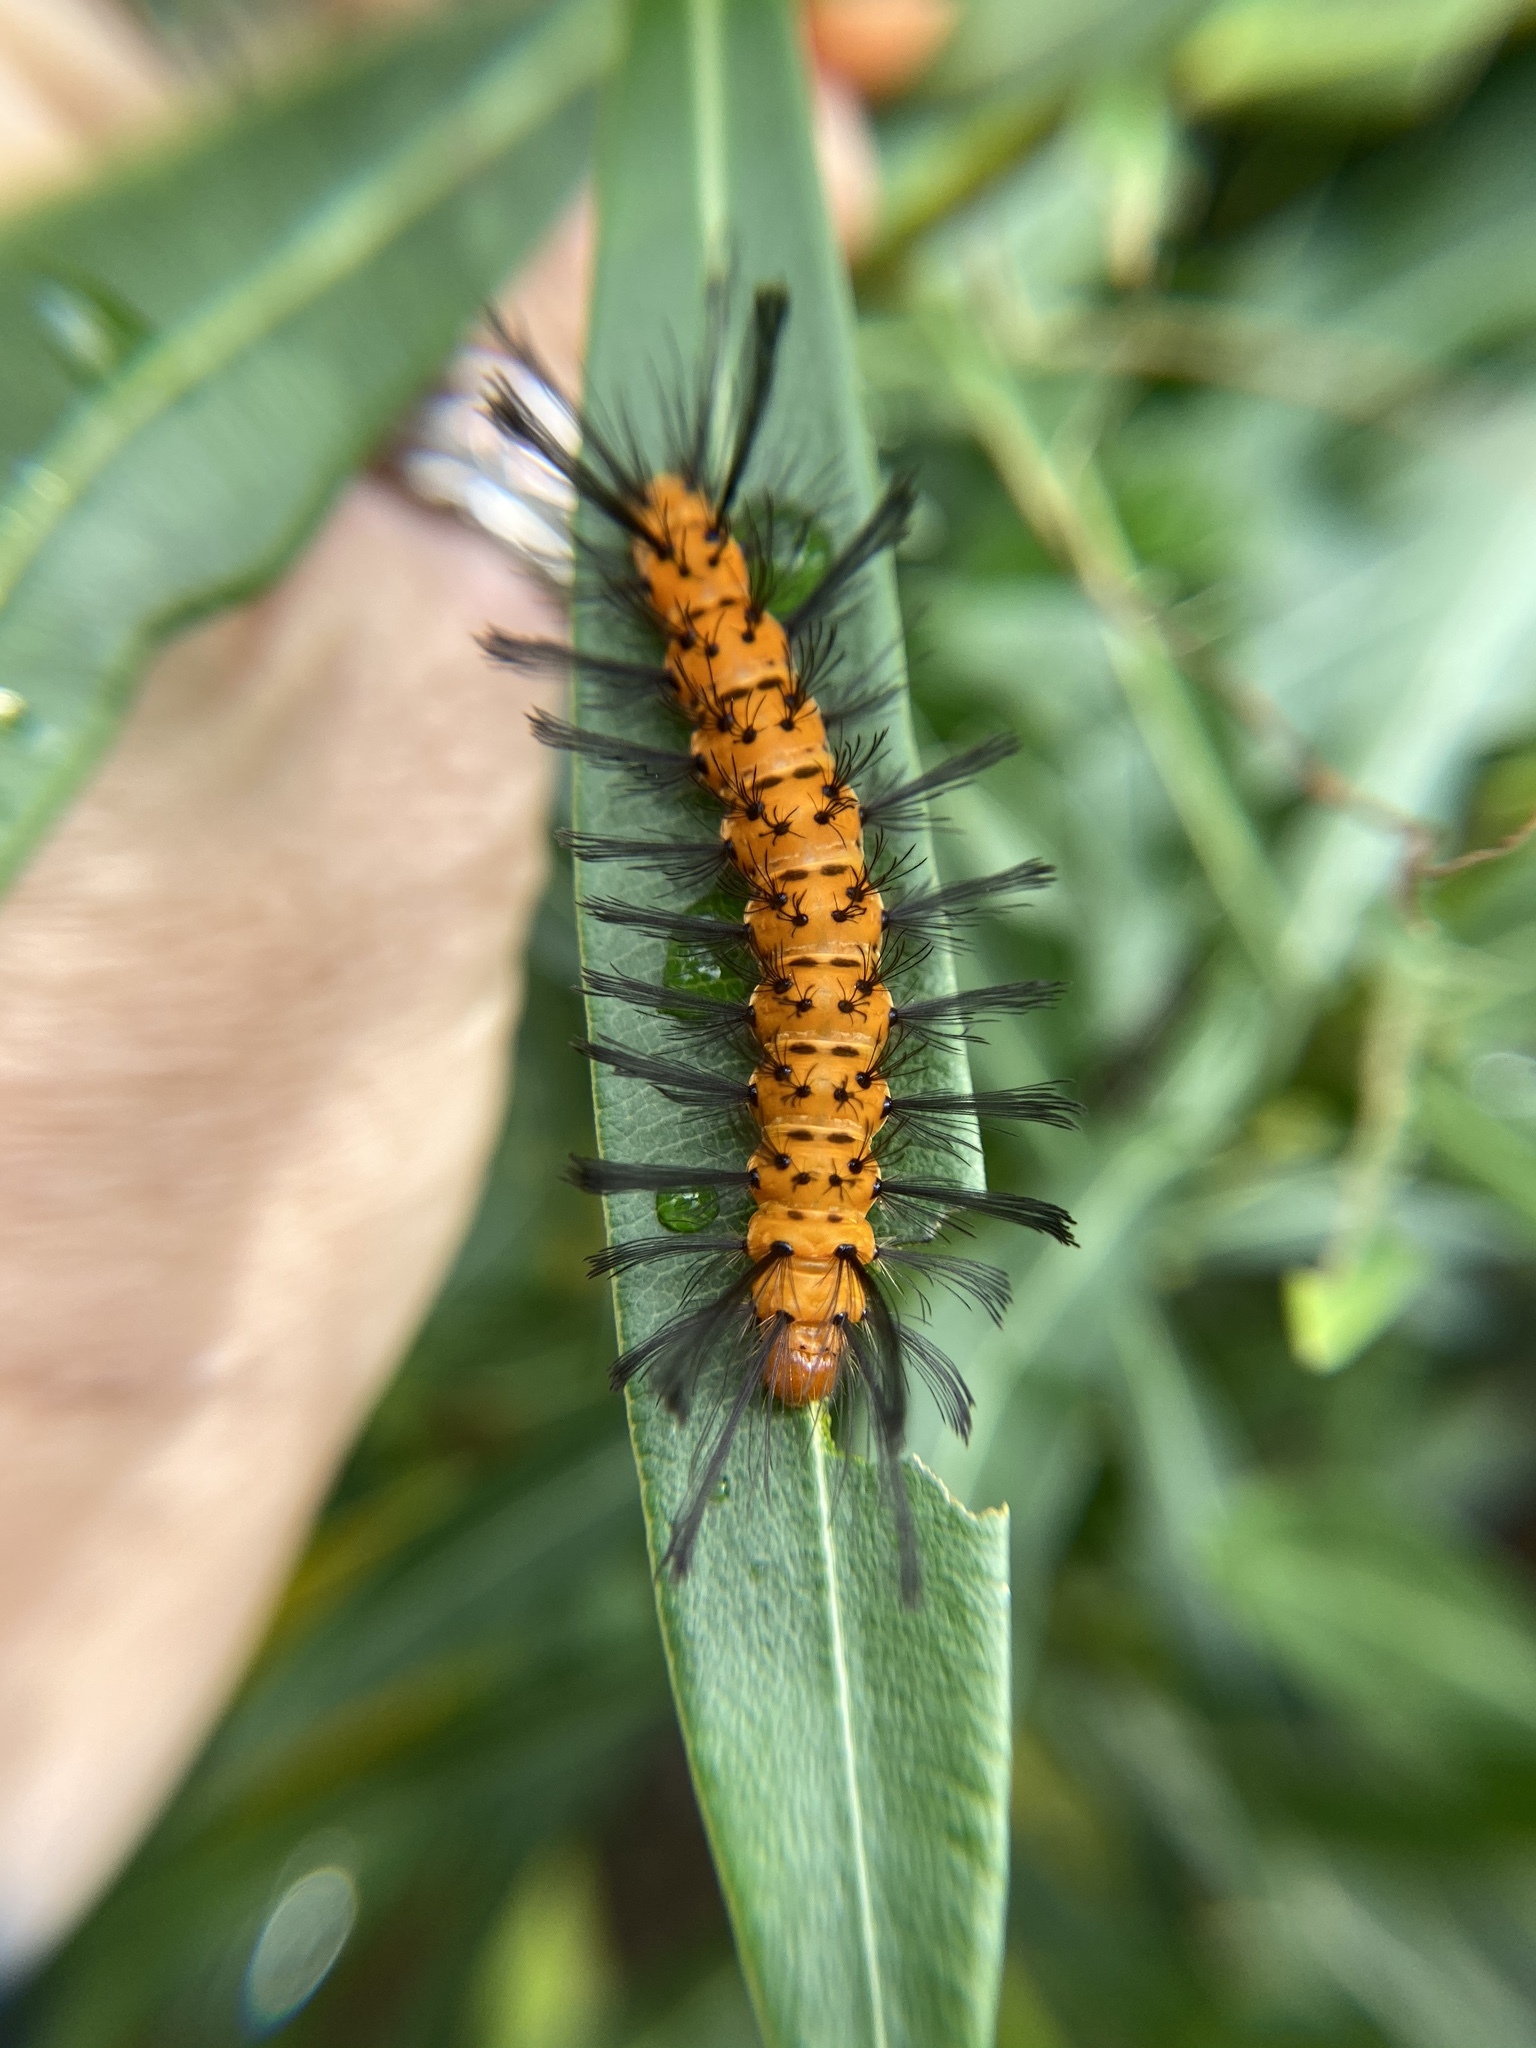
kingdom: Animalia
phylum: Arthropoda
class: Insecta
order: Lepidoptera
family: Erebidae
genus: Syntomeida
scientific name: Syntomeida epilais
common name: Polka-dot wasp moth
